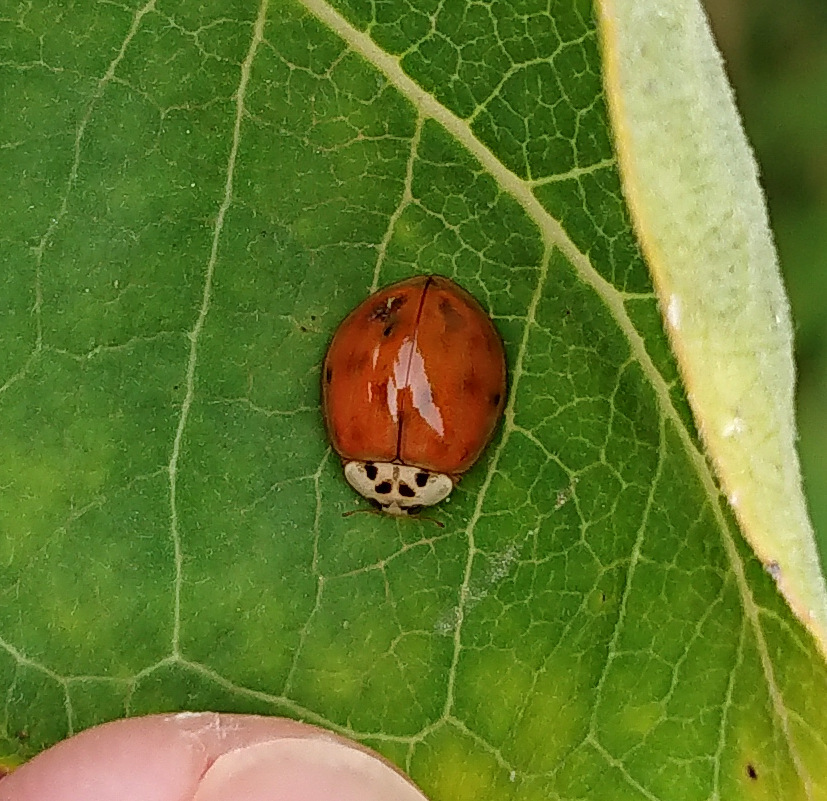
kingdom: Animalia
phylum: Arthropoda
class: Insecta
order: Coleoptera
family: Coccinellidae
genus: Harmonia
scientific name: Harmonia axyridis
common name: Harlequin ladybird
